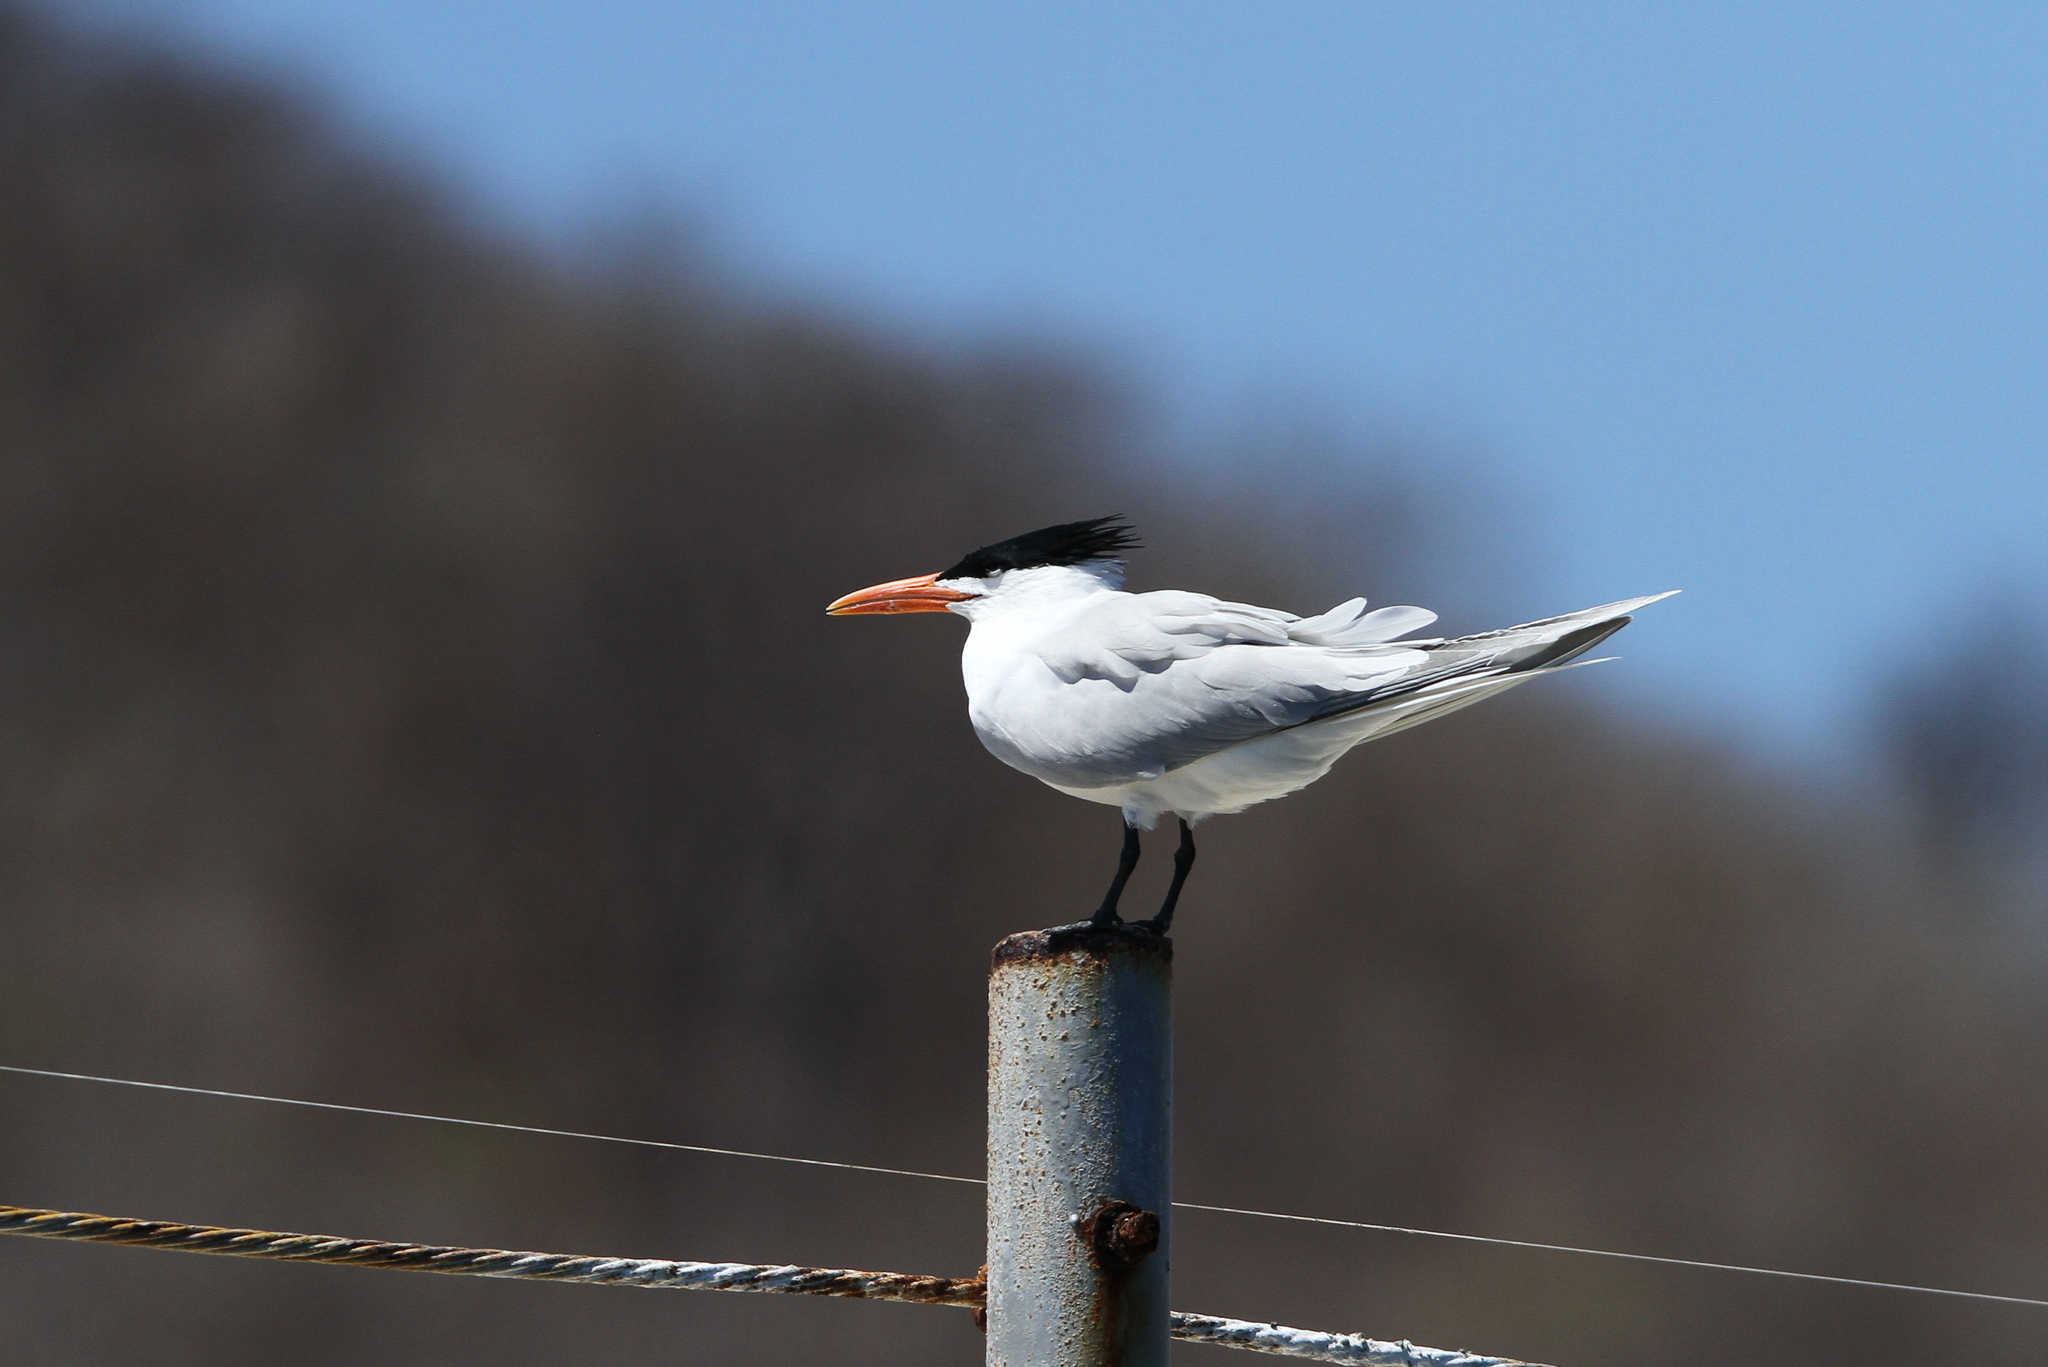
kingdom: Animalia
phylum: Chordata
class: Aves
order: Charadriiformes
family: Laridae
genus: Thalasseus
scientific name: Thalasseus maximus
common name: Royal tern
